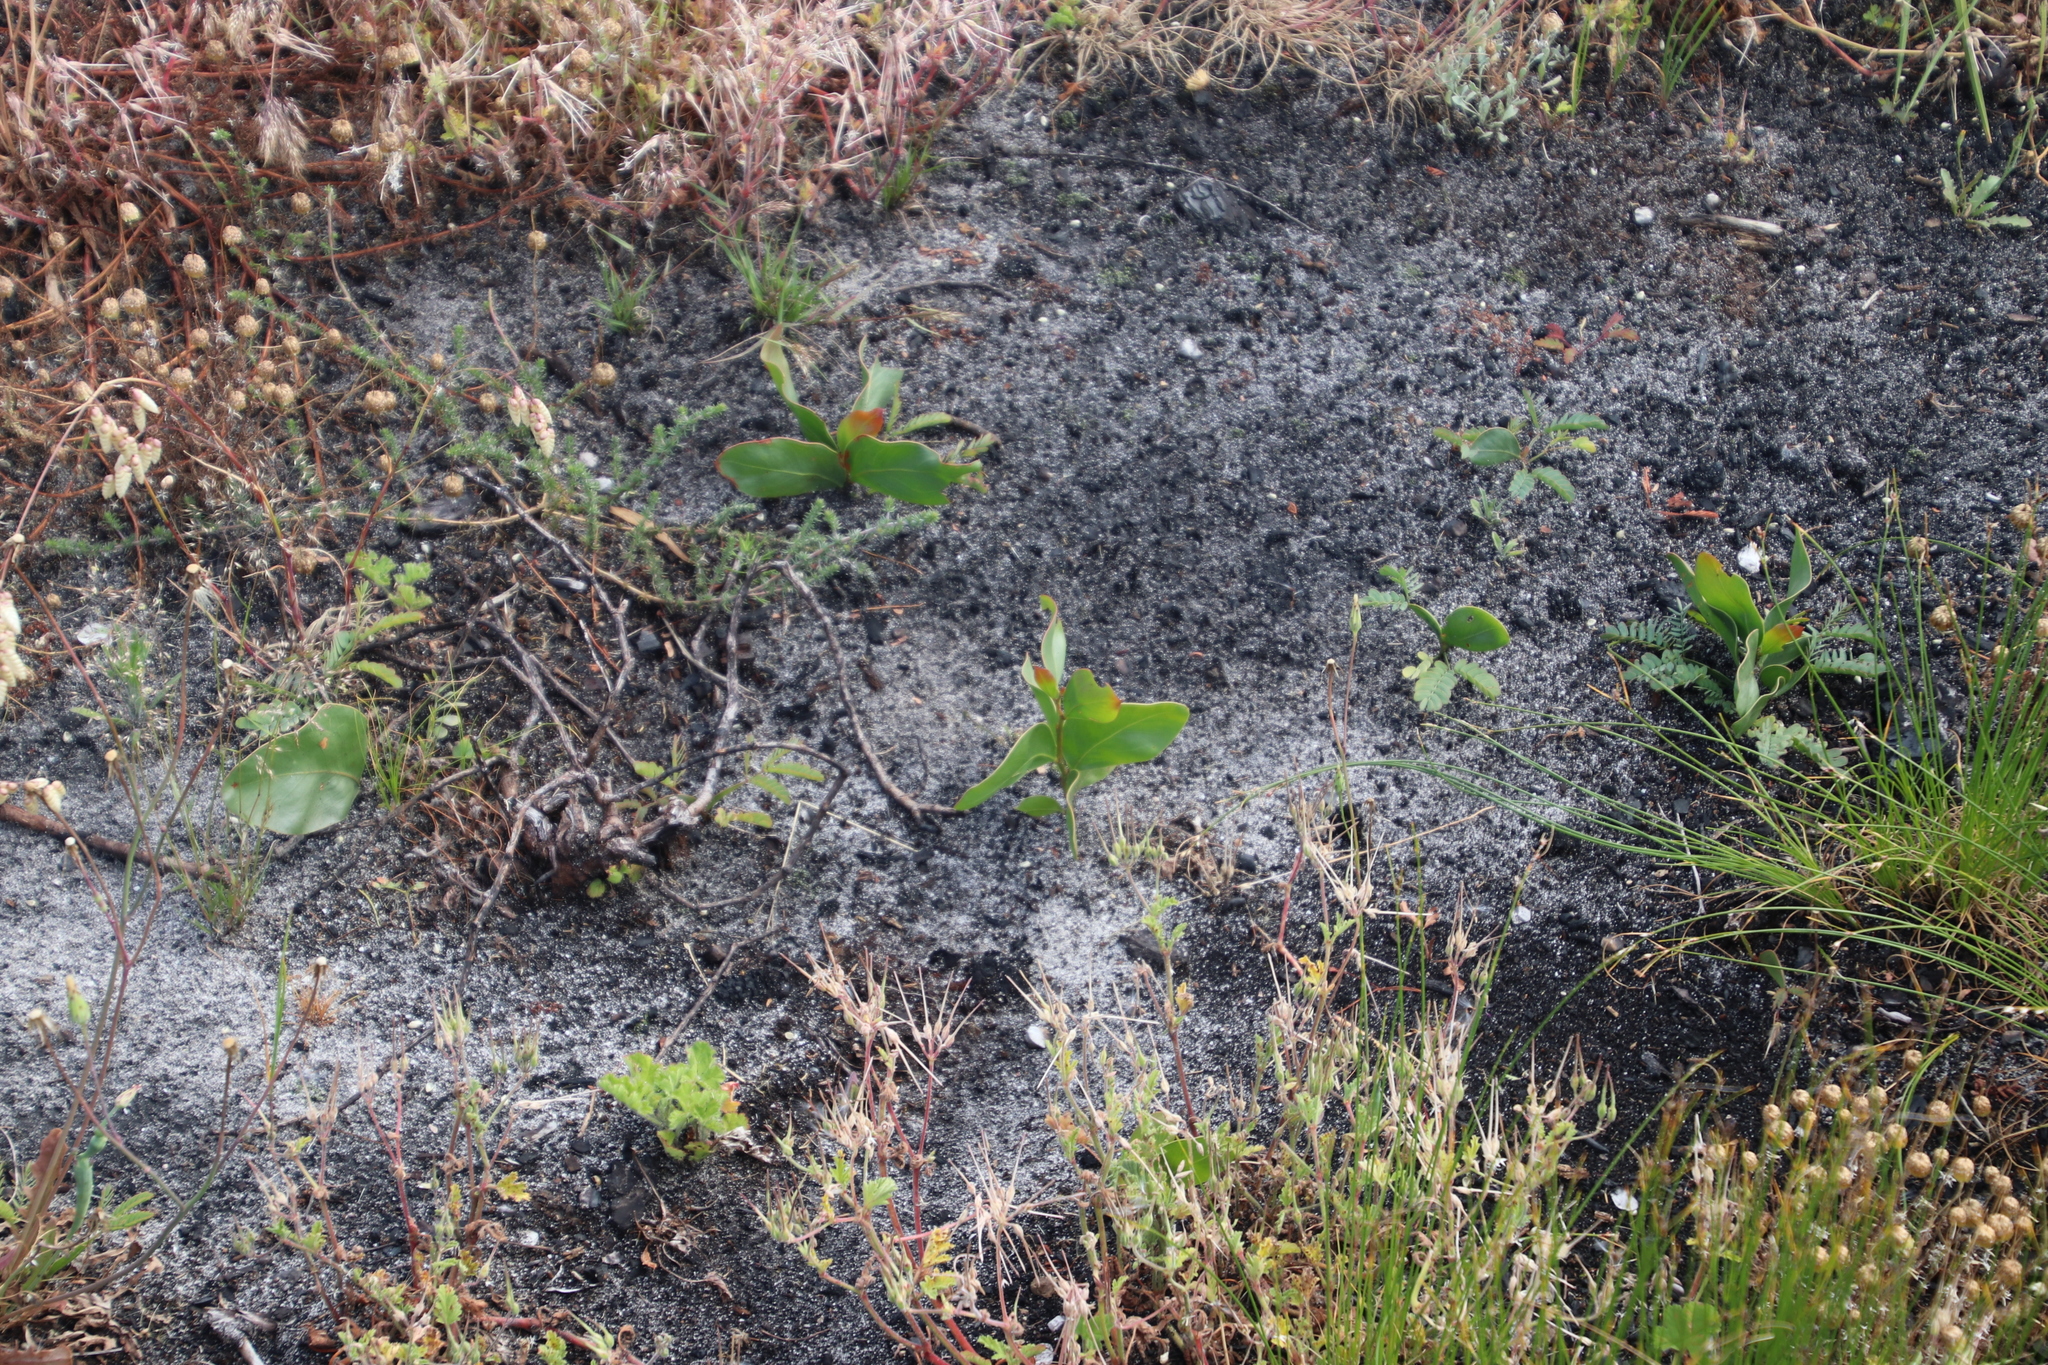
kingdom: Plantae
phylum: Tracheophyta
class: Magnoliopsida
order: Fabales
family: Fabaceae
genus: Acacia
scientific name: Acacia pycnantha
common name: Golden wattle
